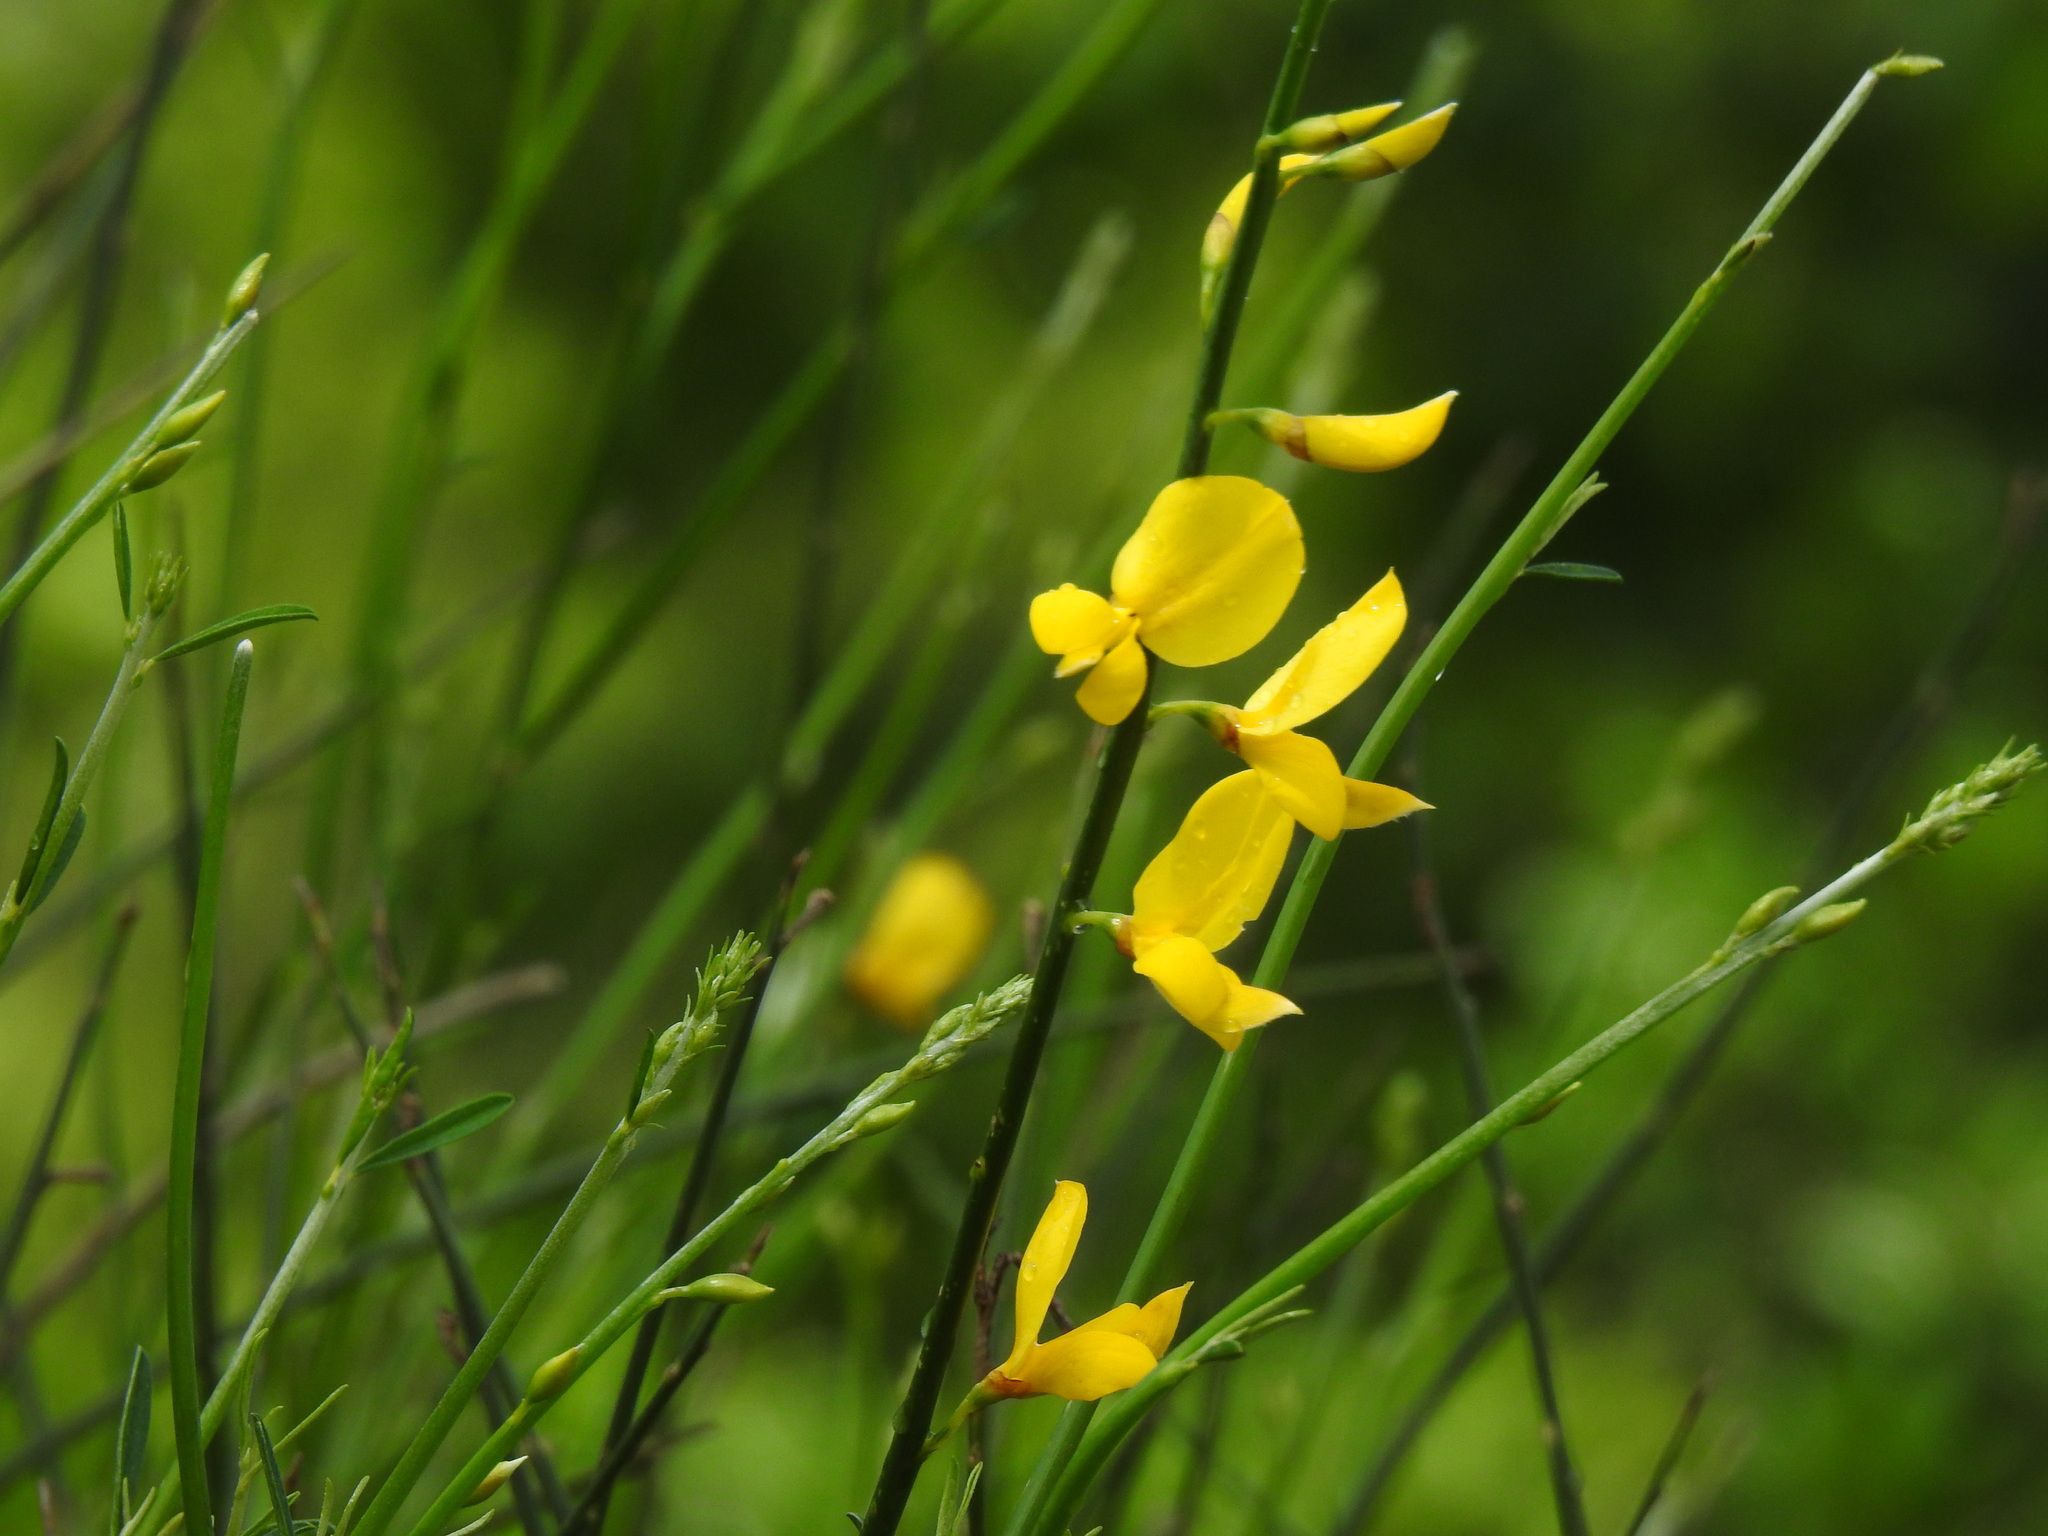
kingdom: Plantae
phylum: Tracheophyta
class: Magnoliopsida
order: Fabales
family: Fabaceae
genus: Spartium
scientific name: Spartium junceum
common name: Spanish broom
